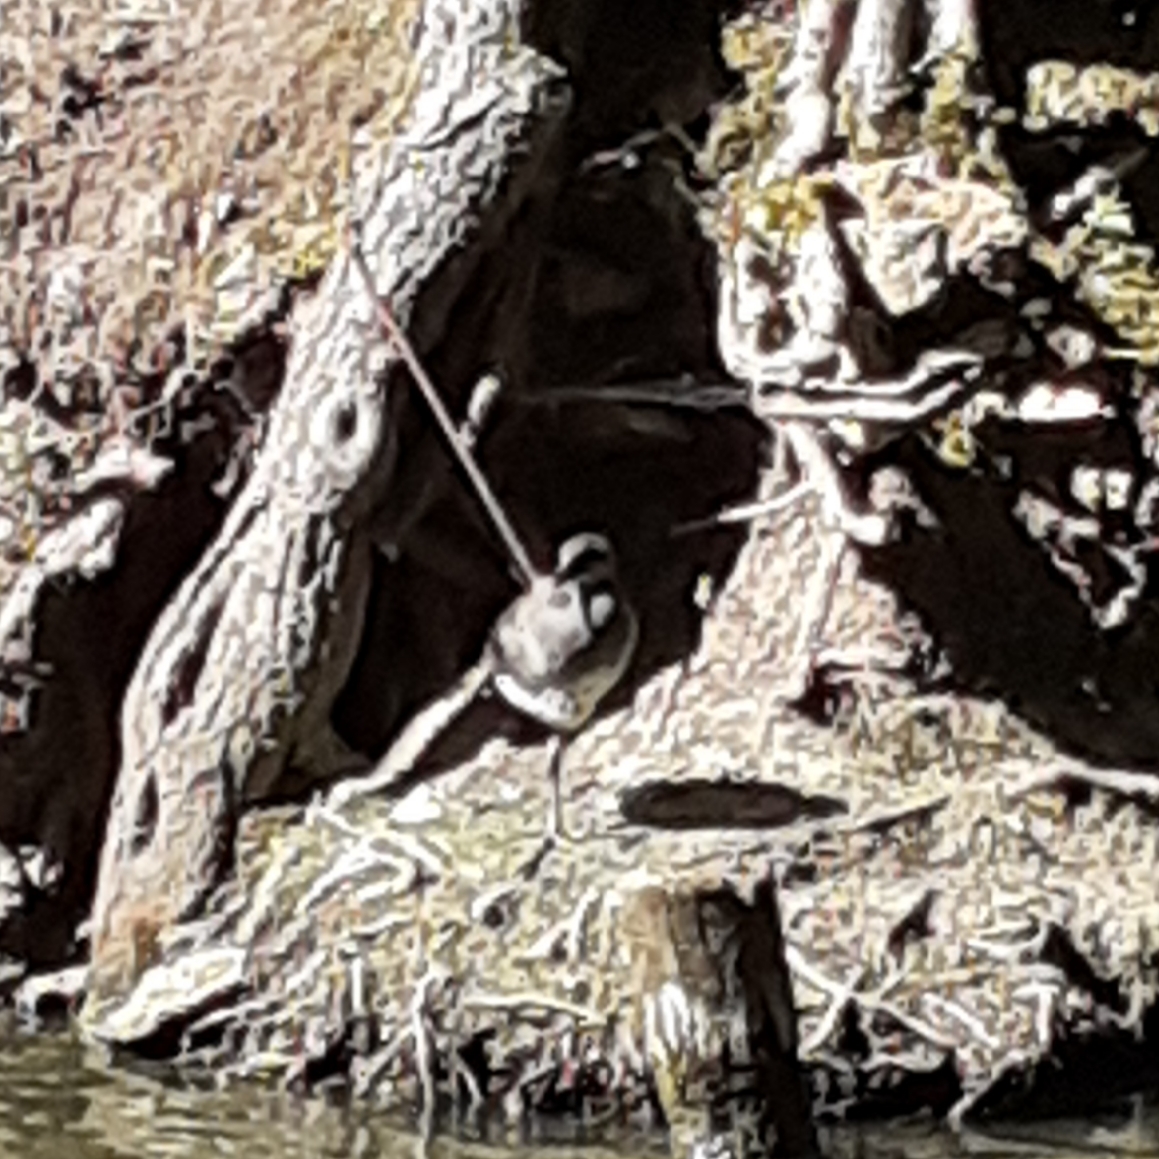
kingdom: Animalia
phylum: Chordata
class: Aves
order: Gruiformes
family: Rallidae
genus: Gallinula
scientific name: Gallinula chloropus
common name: Common moorhen
